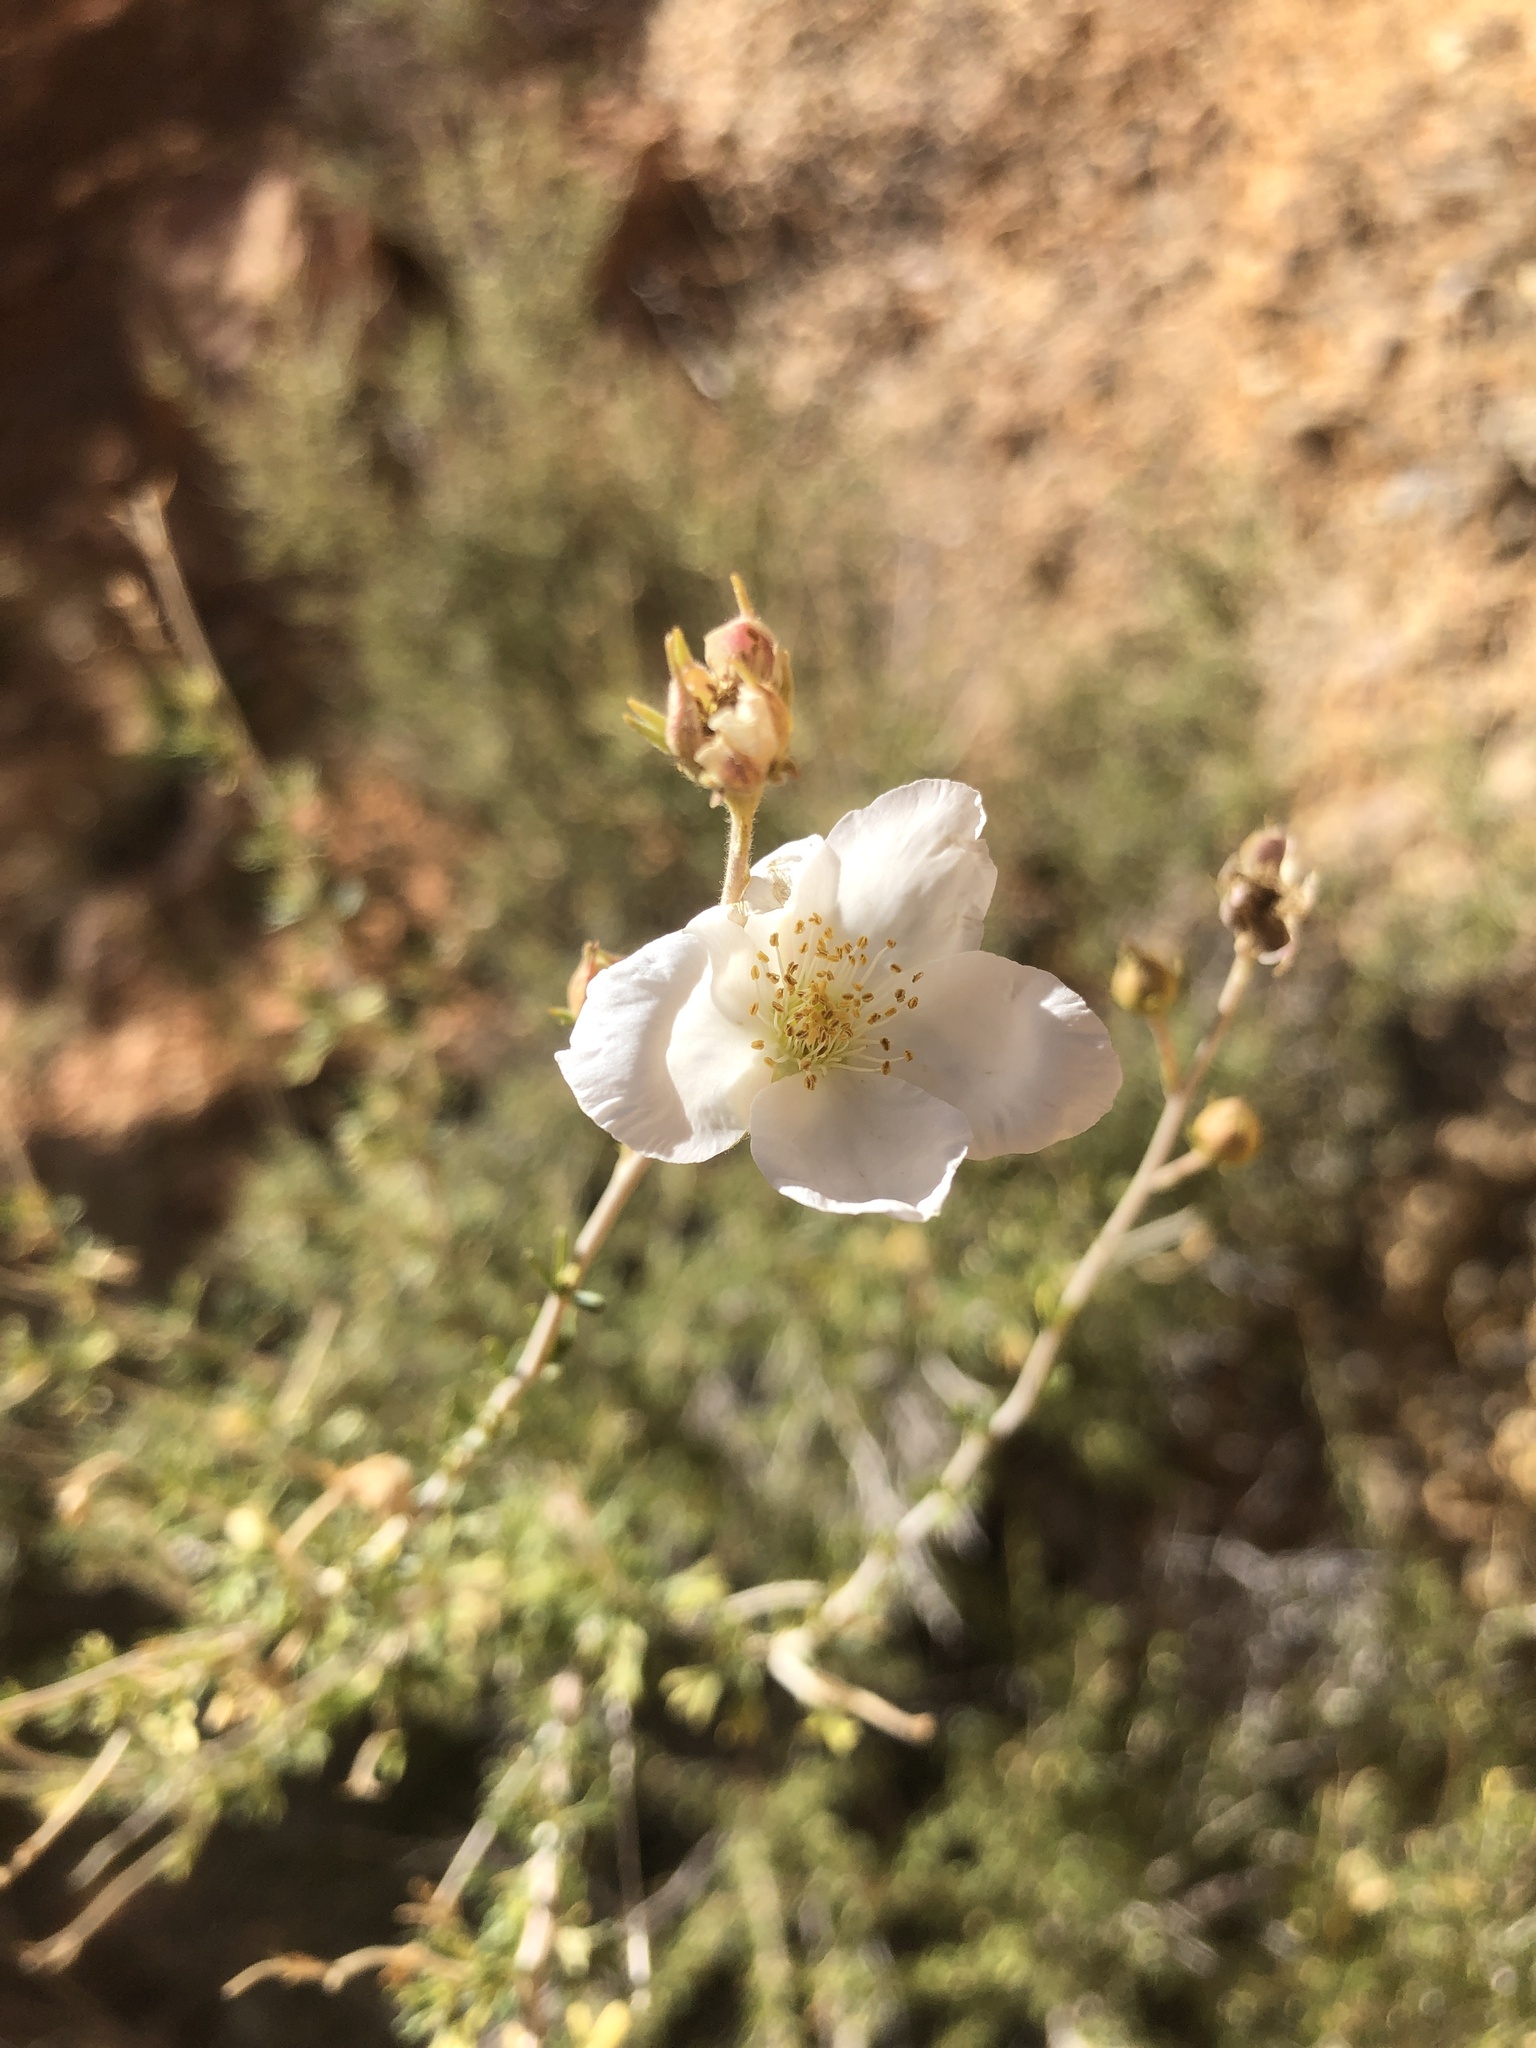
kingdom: Plantae
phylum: Tracheophyta
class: Magnoliopsida
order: Rosales
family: Rosaceae
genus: Fallugia
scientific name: Fallugia paradoxa
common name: Apache-plume
